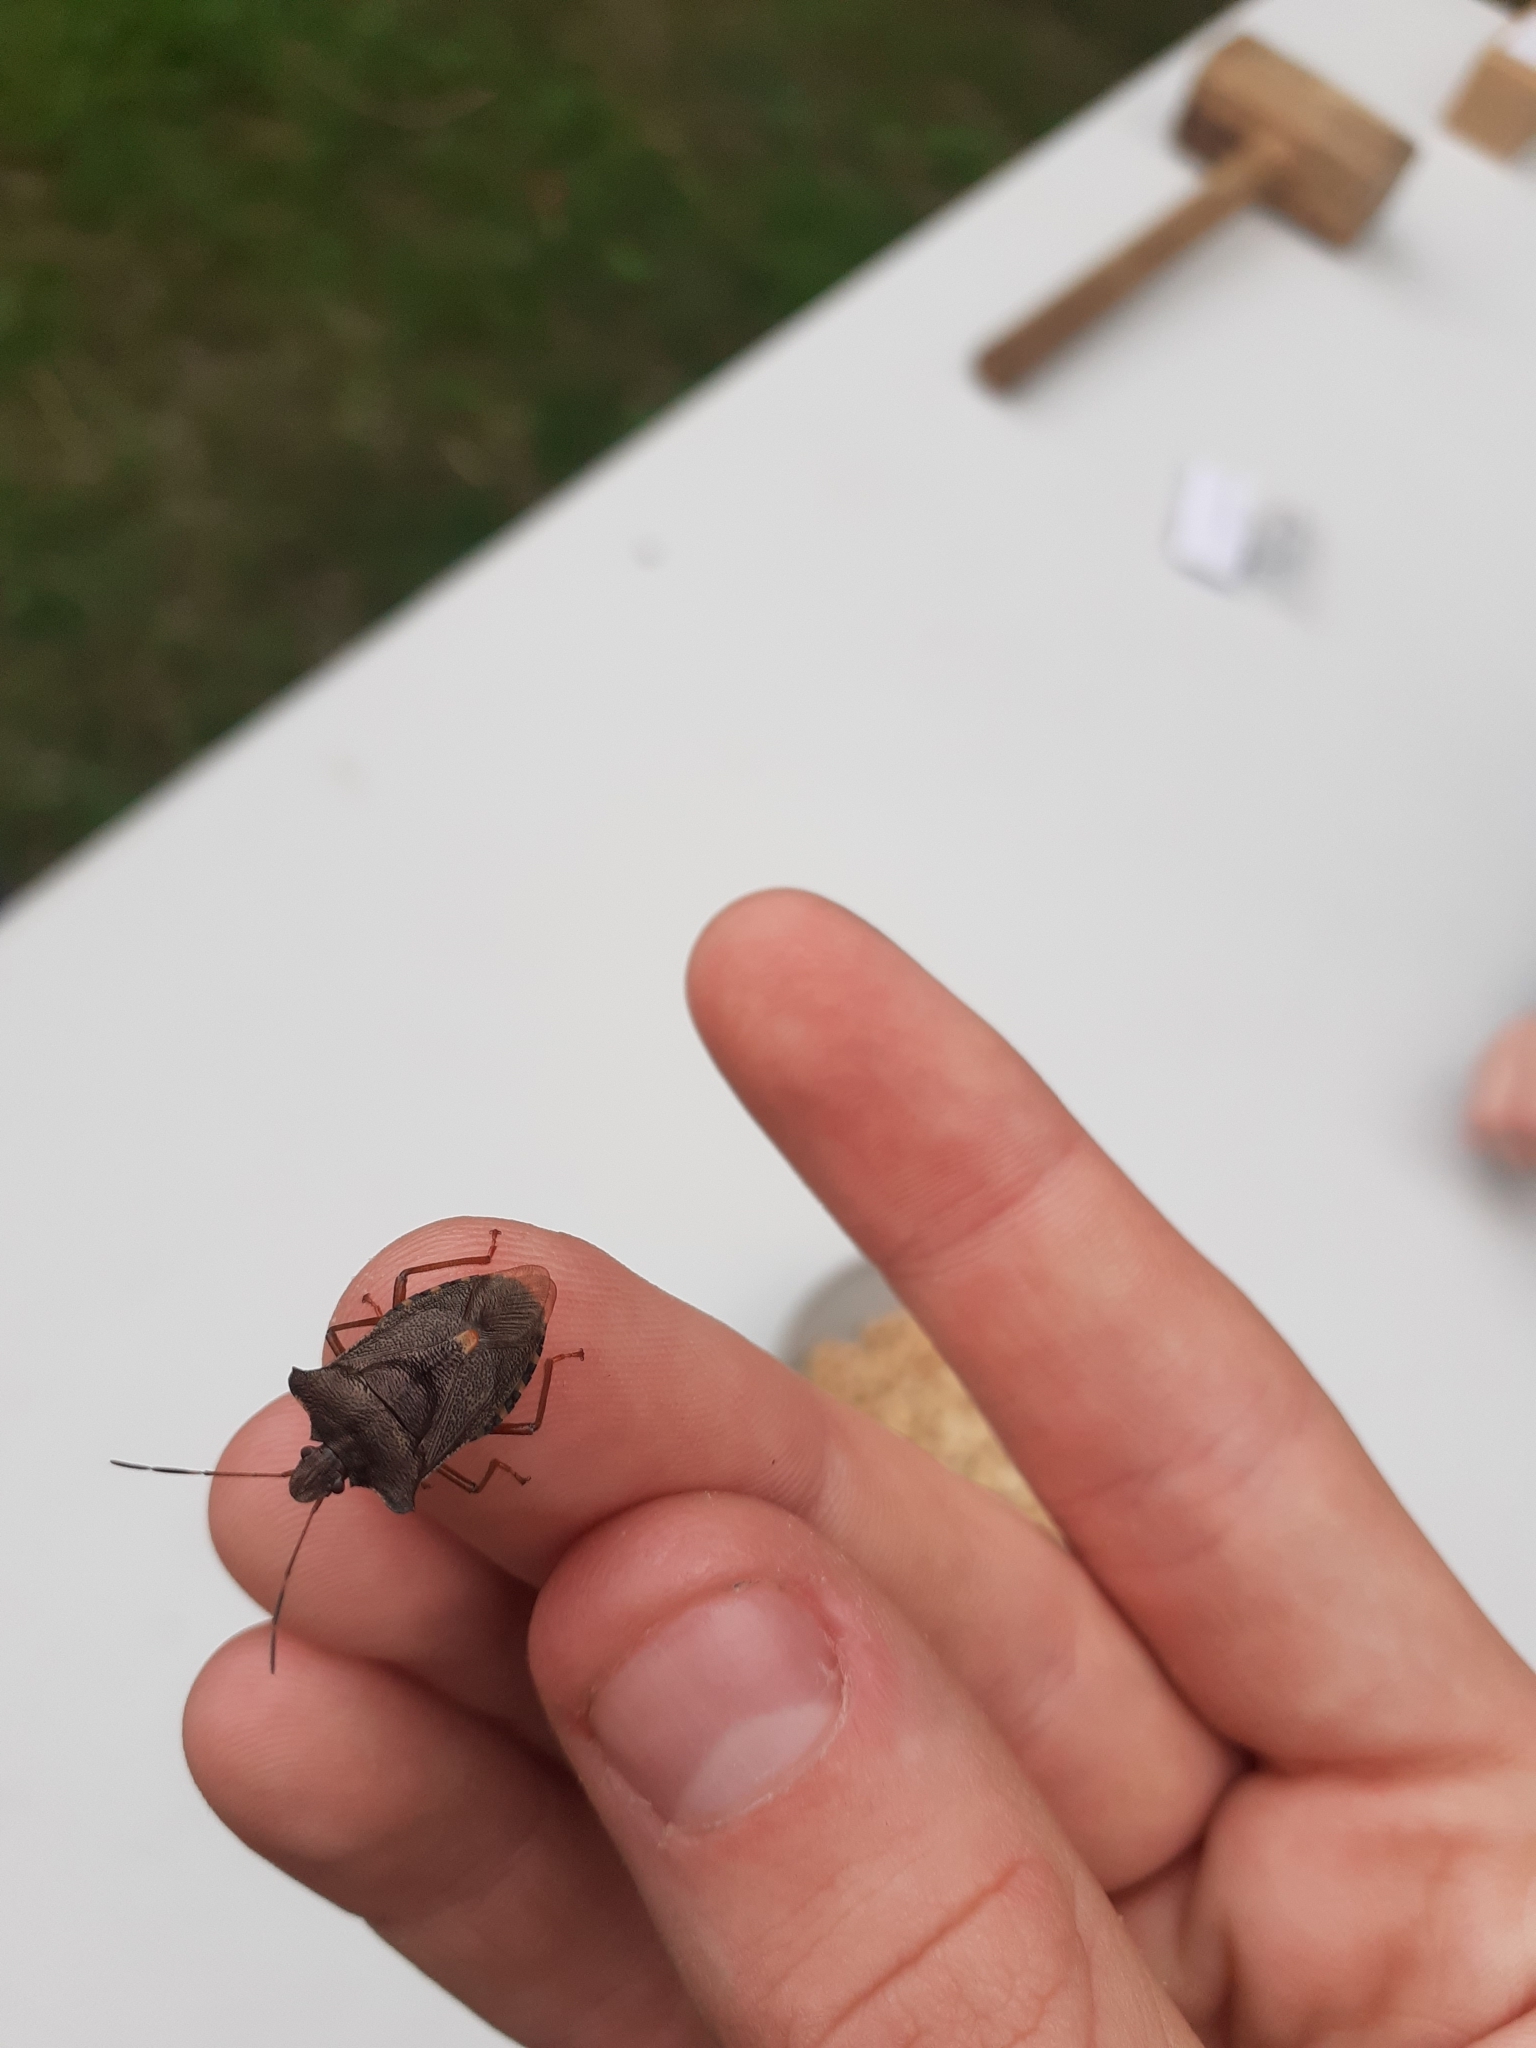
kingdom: Animalia
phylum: Arthropoda
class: Insecta
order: Hemiptera
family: Pentatomidae
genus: Pentatoma
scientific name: Pentatoma rufipes
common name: Forest bug
